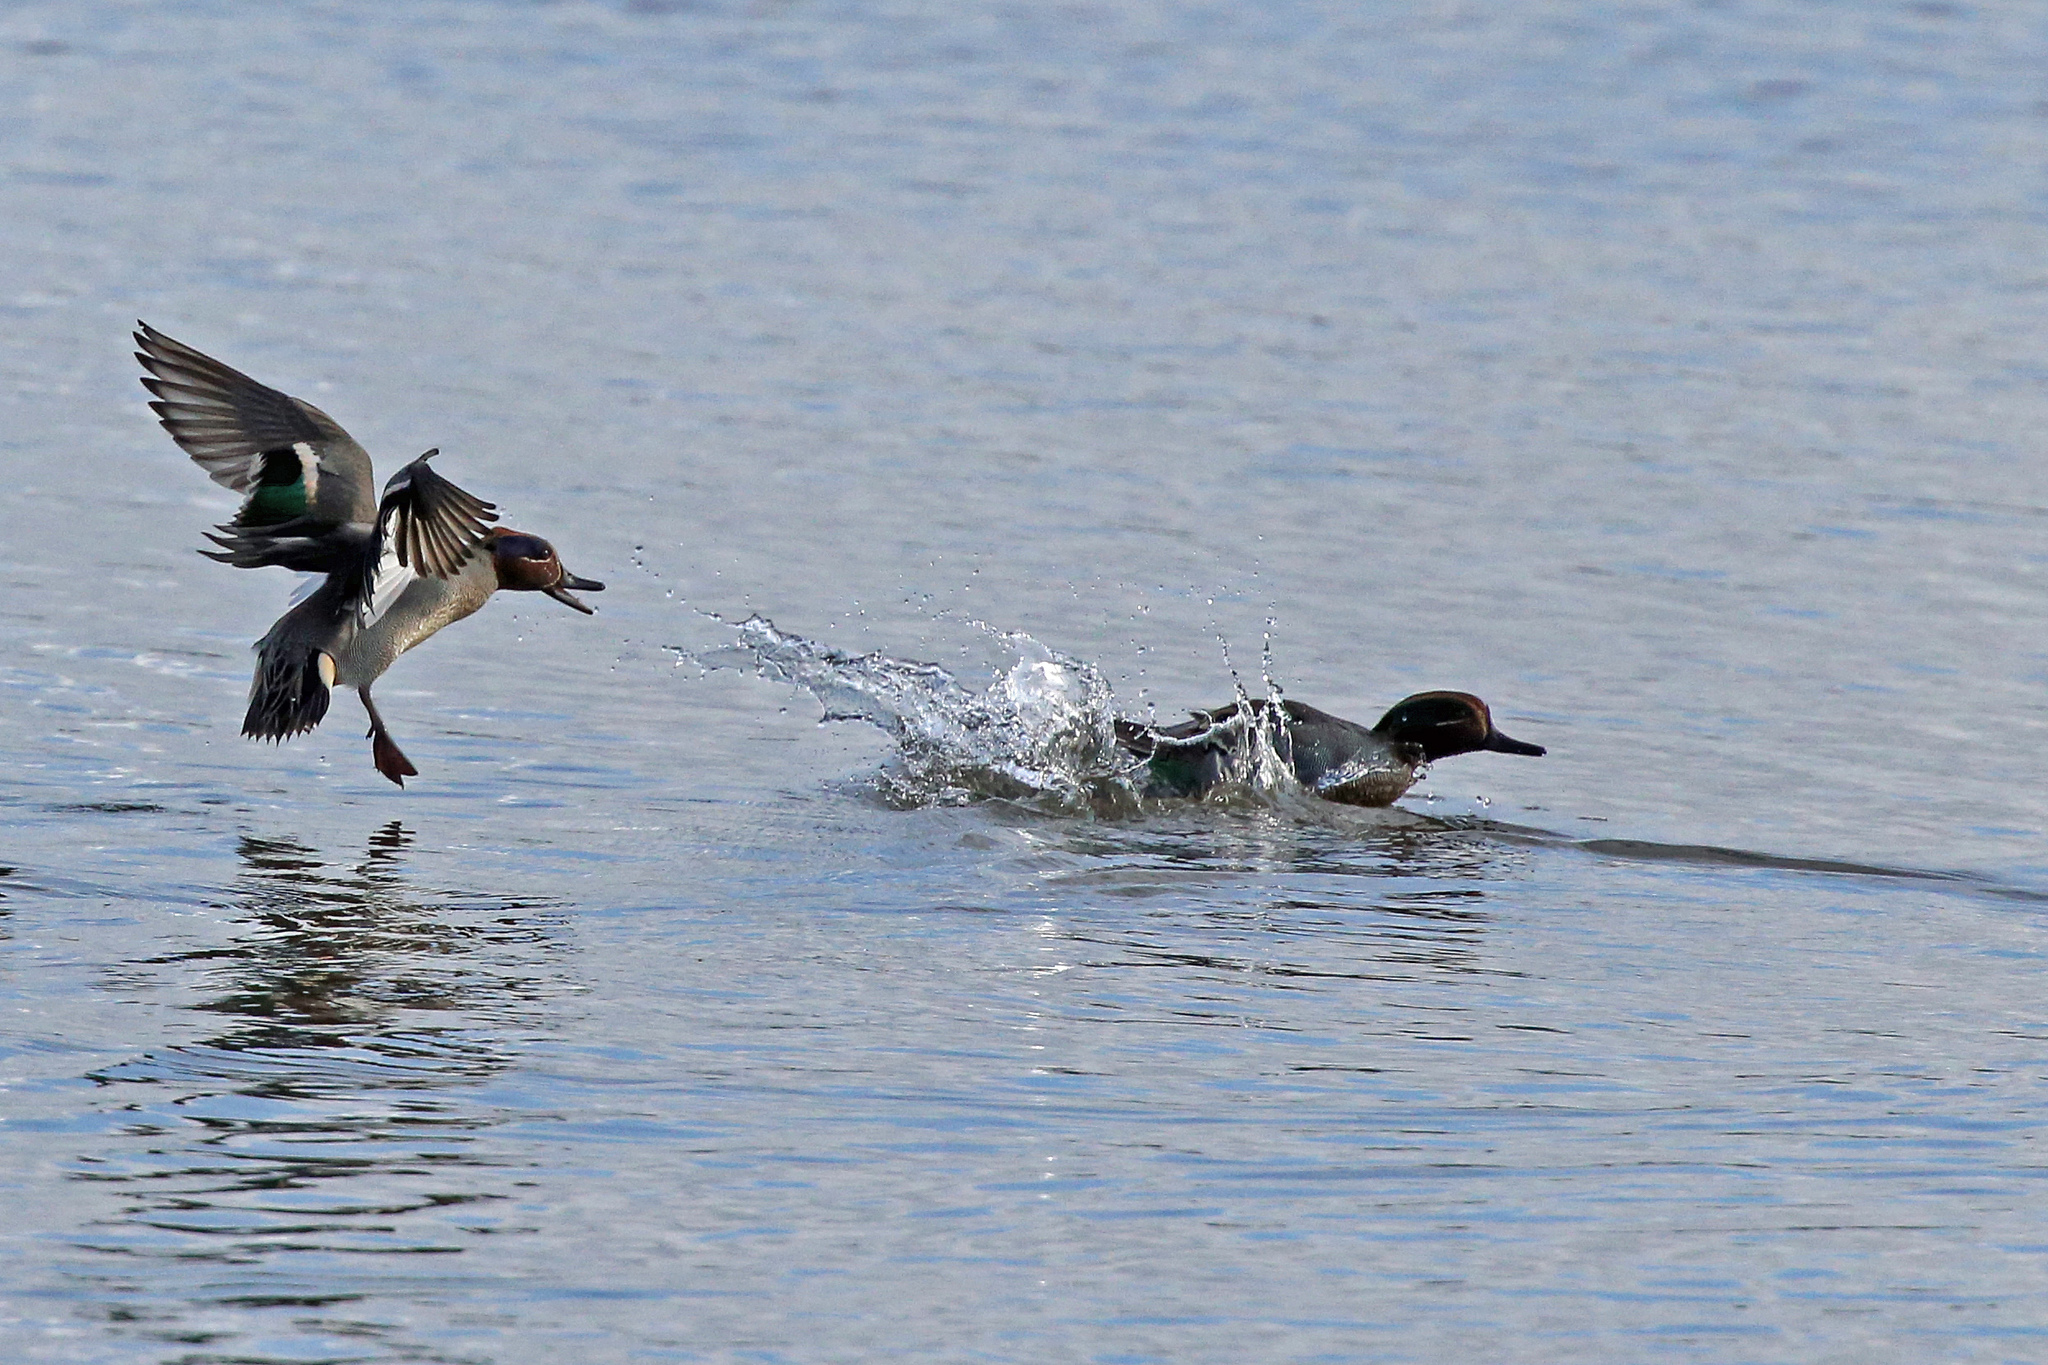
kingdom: Animalia
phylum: Chordata
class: Aves
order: Anseriformes
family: Anatidae
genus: Anas
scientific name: Anas crecca
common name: Eurasian teal
